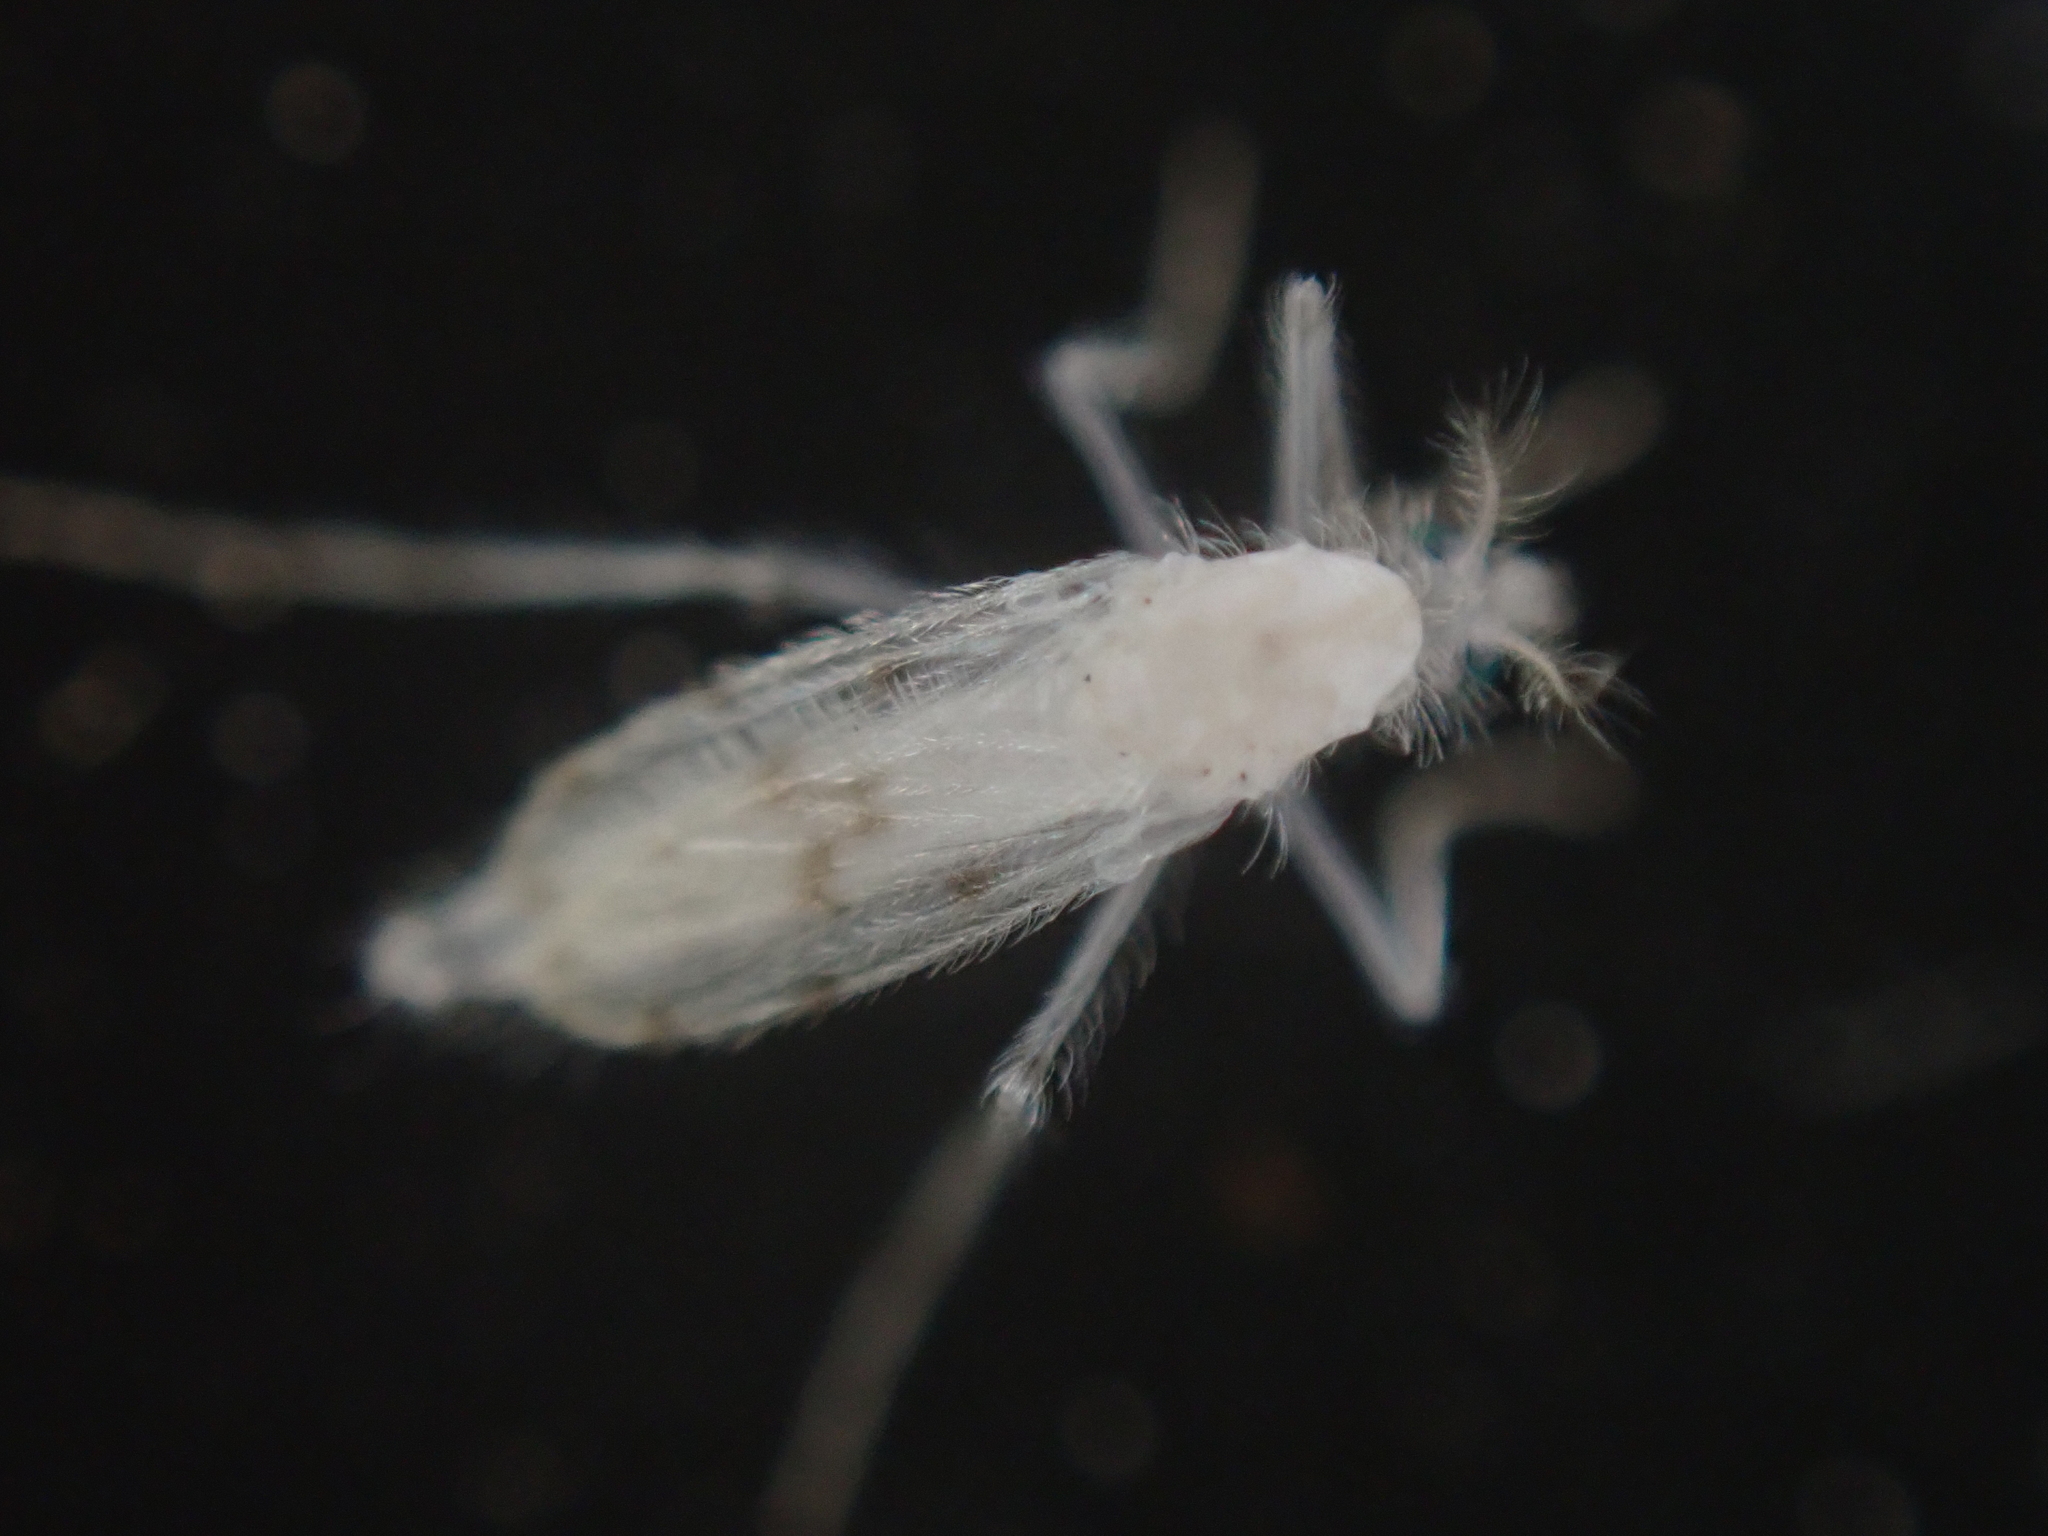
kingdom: Animalia
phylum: Arthropoda
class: Insecta
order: Diptera
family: Chaoboridae
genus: Chaoborus
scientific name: Chaoborus albatus
